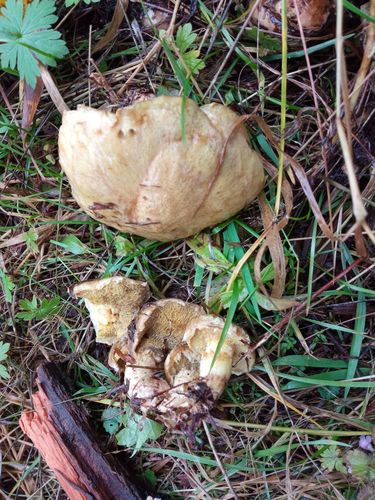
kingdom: Fungi
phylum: Basidiomycota
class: Agaricomycetes
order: Boletales
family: Suillaceae
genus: Suillus
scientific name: Suillus americanus
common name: Chicken fat mushroom
